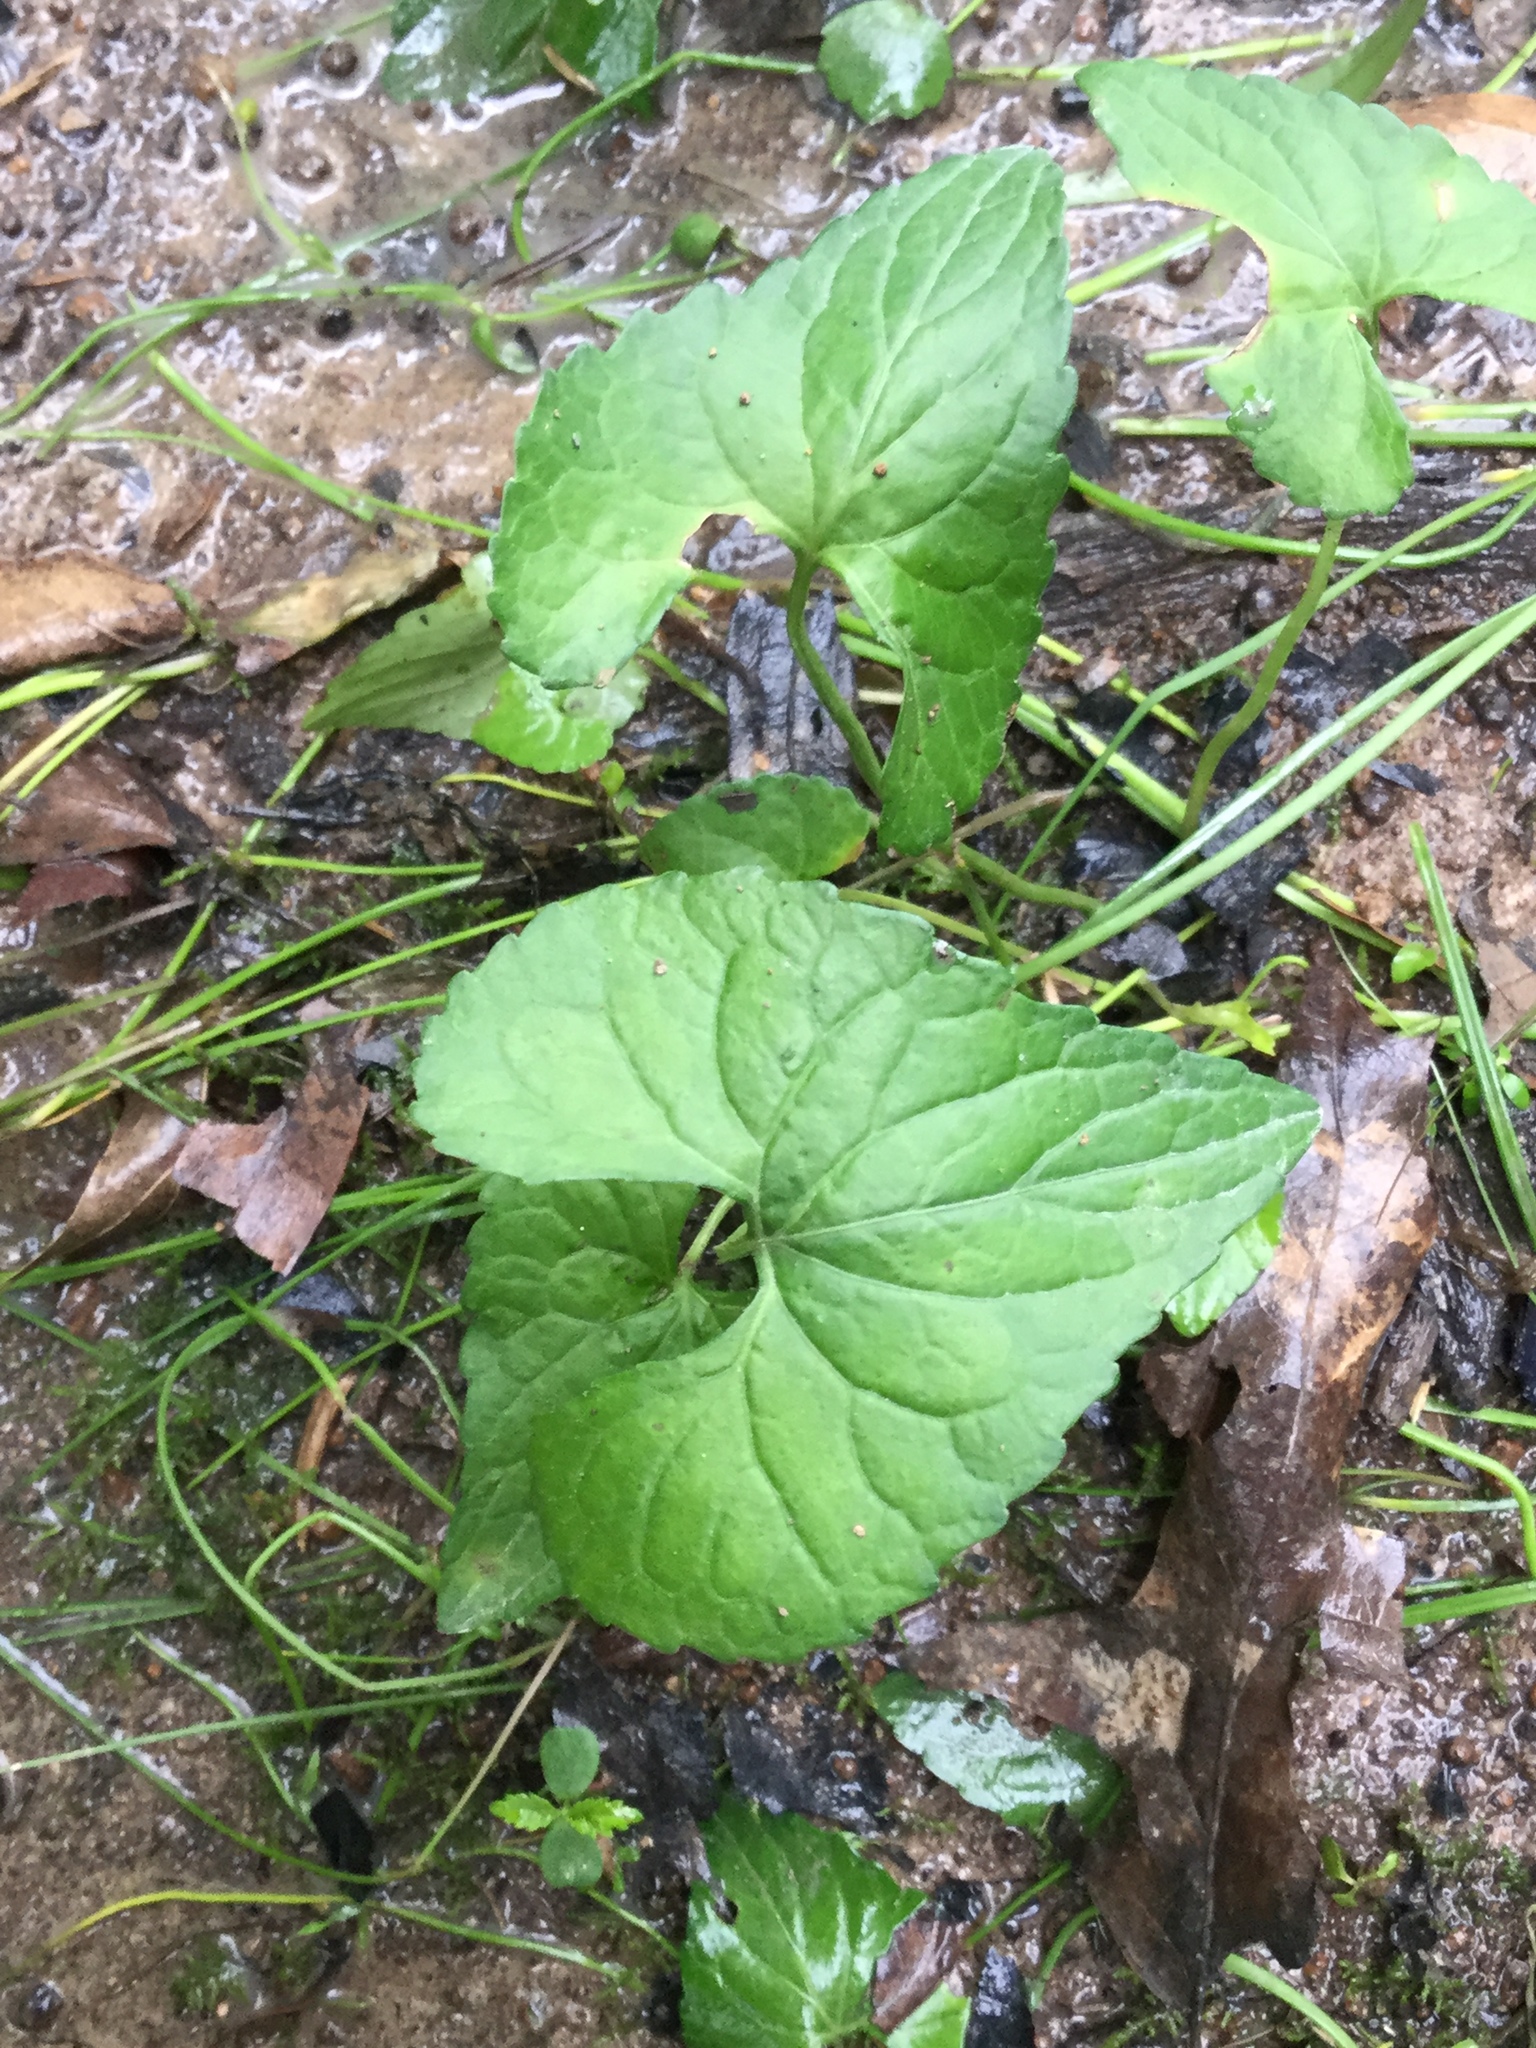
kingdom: Plantae
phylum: Tracheophyta
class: Magnoliopsida
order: Malpighiales
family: Violaceae
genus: Viola
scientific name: Viola sororia
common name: Dooryard violet
